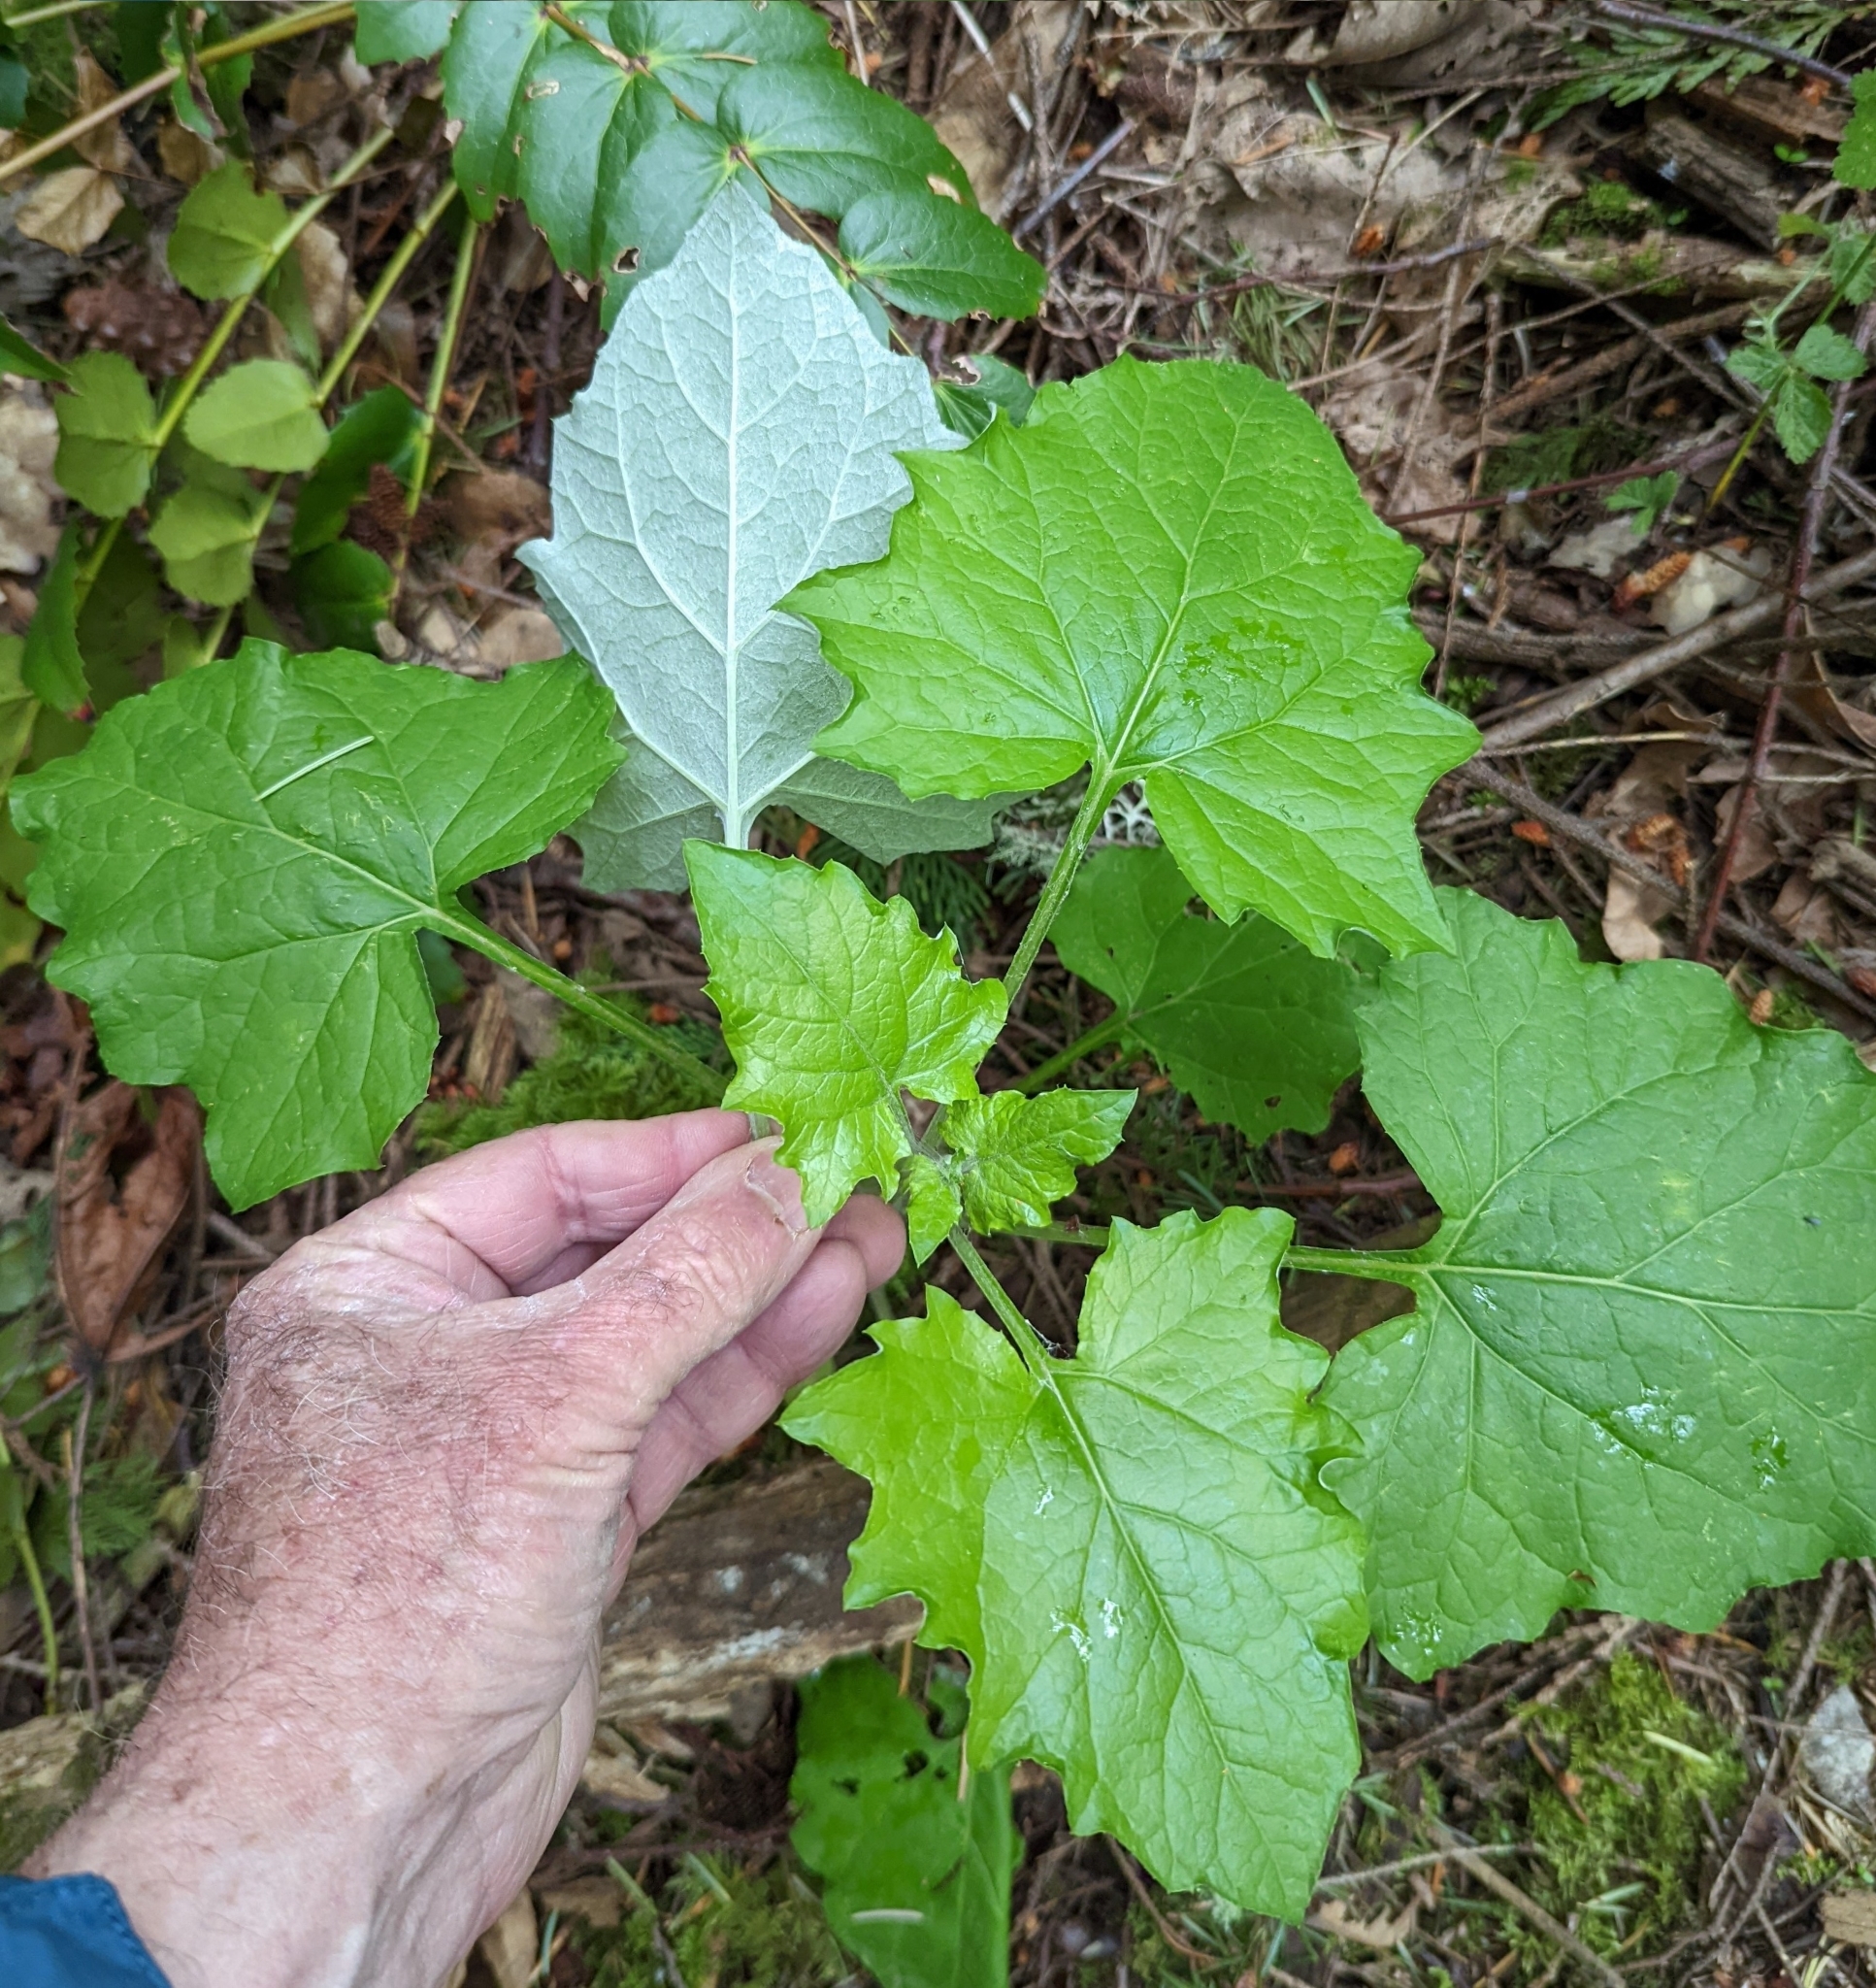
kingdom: Plantae
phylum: Tracheophyta
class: Magnoliopsida
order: Asterales
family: Asteraceae
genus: Adenocaulon
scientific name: Adenocaulon bicolor
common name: Trailplant
